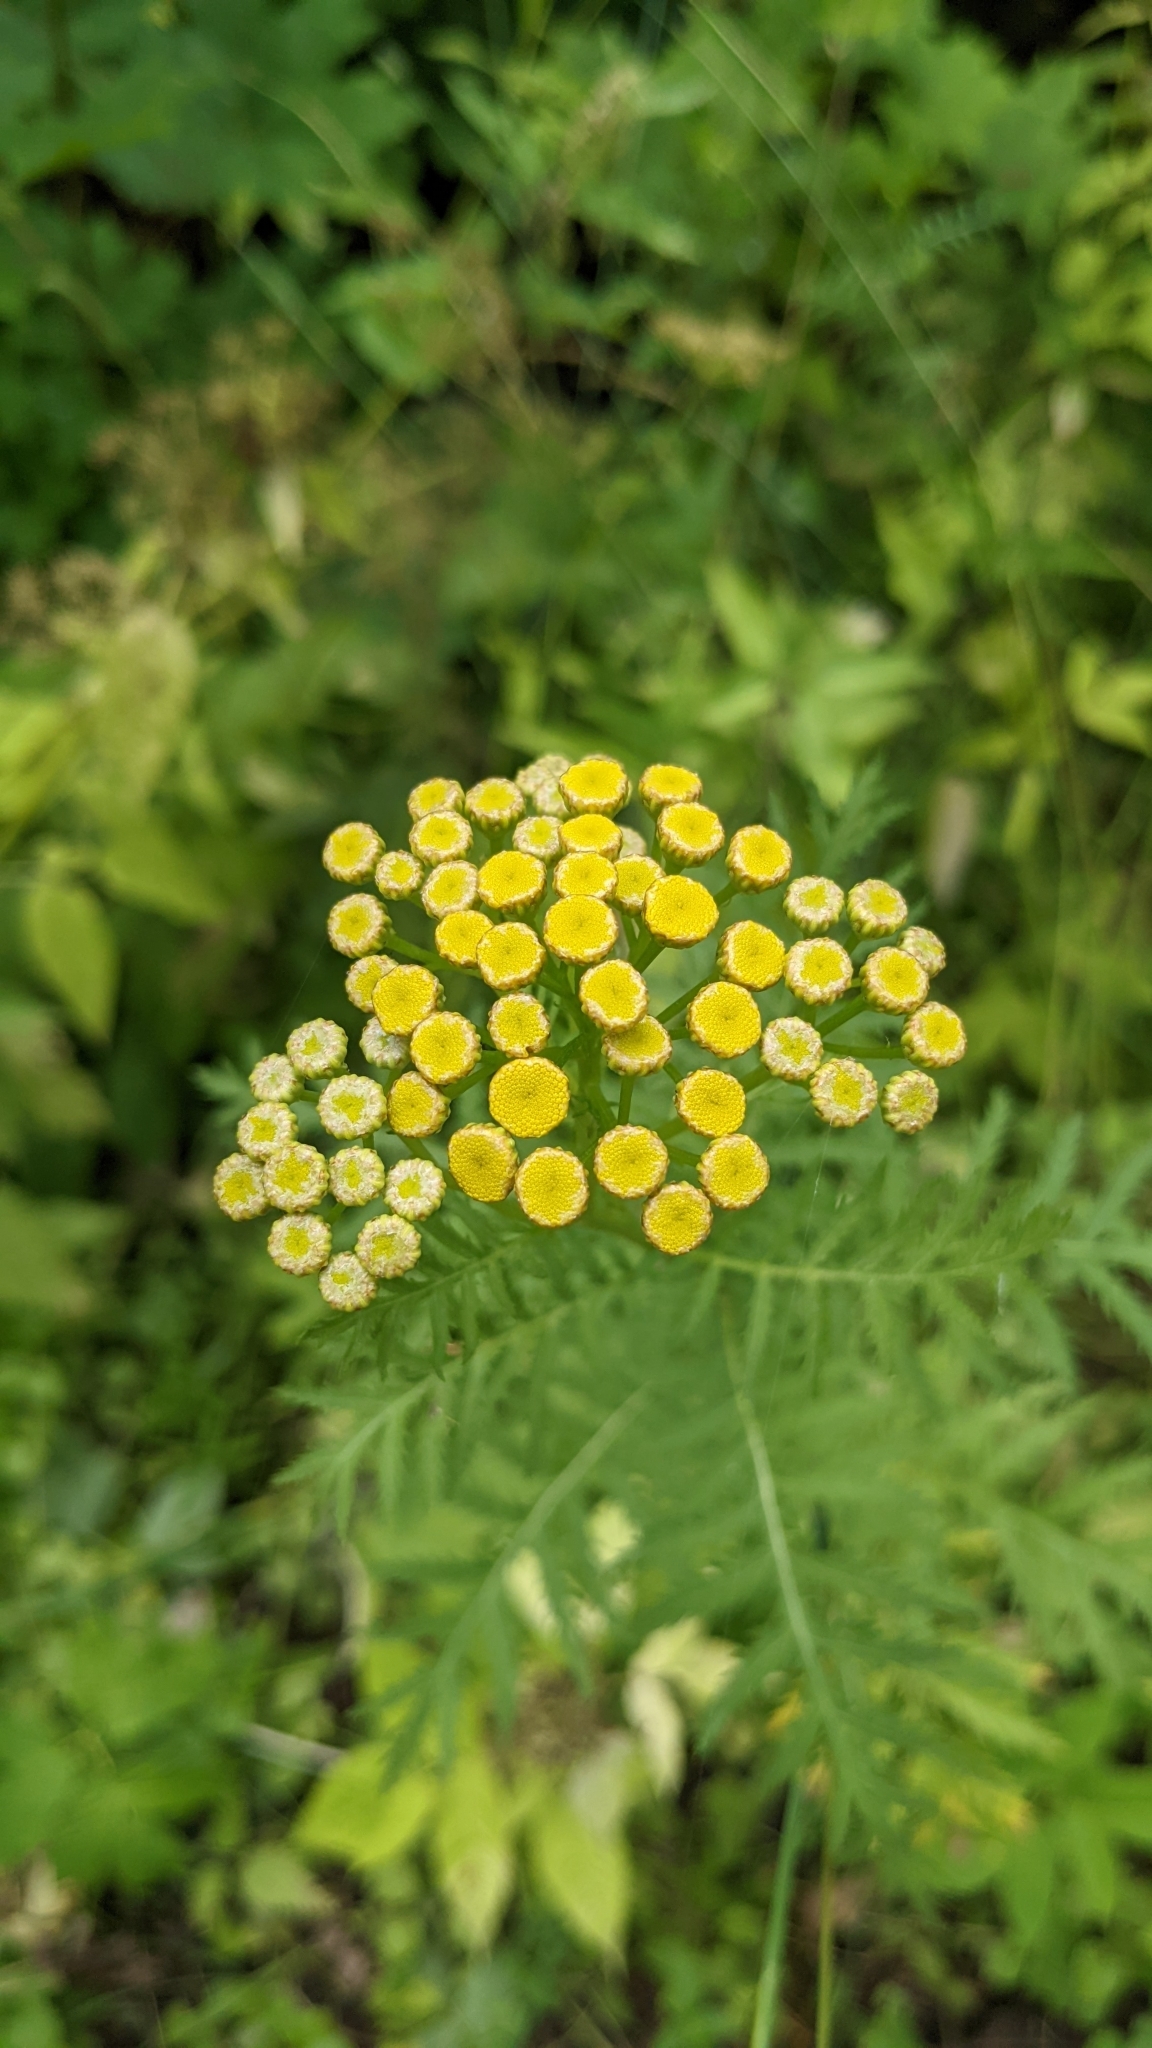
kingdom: Plantae
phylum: Tracheophyta
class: Magnoliopsida
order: Asterales
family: Asteraceae
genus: Tanacetum
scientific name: Tanacetum vulgare
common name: Common tansy
